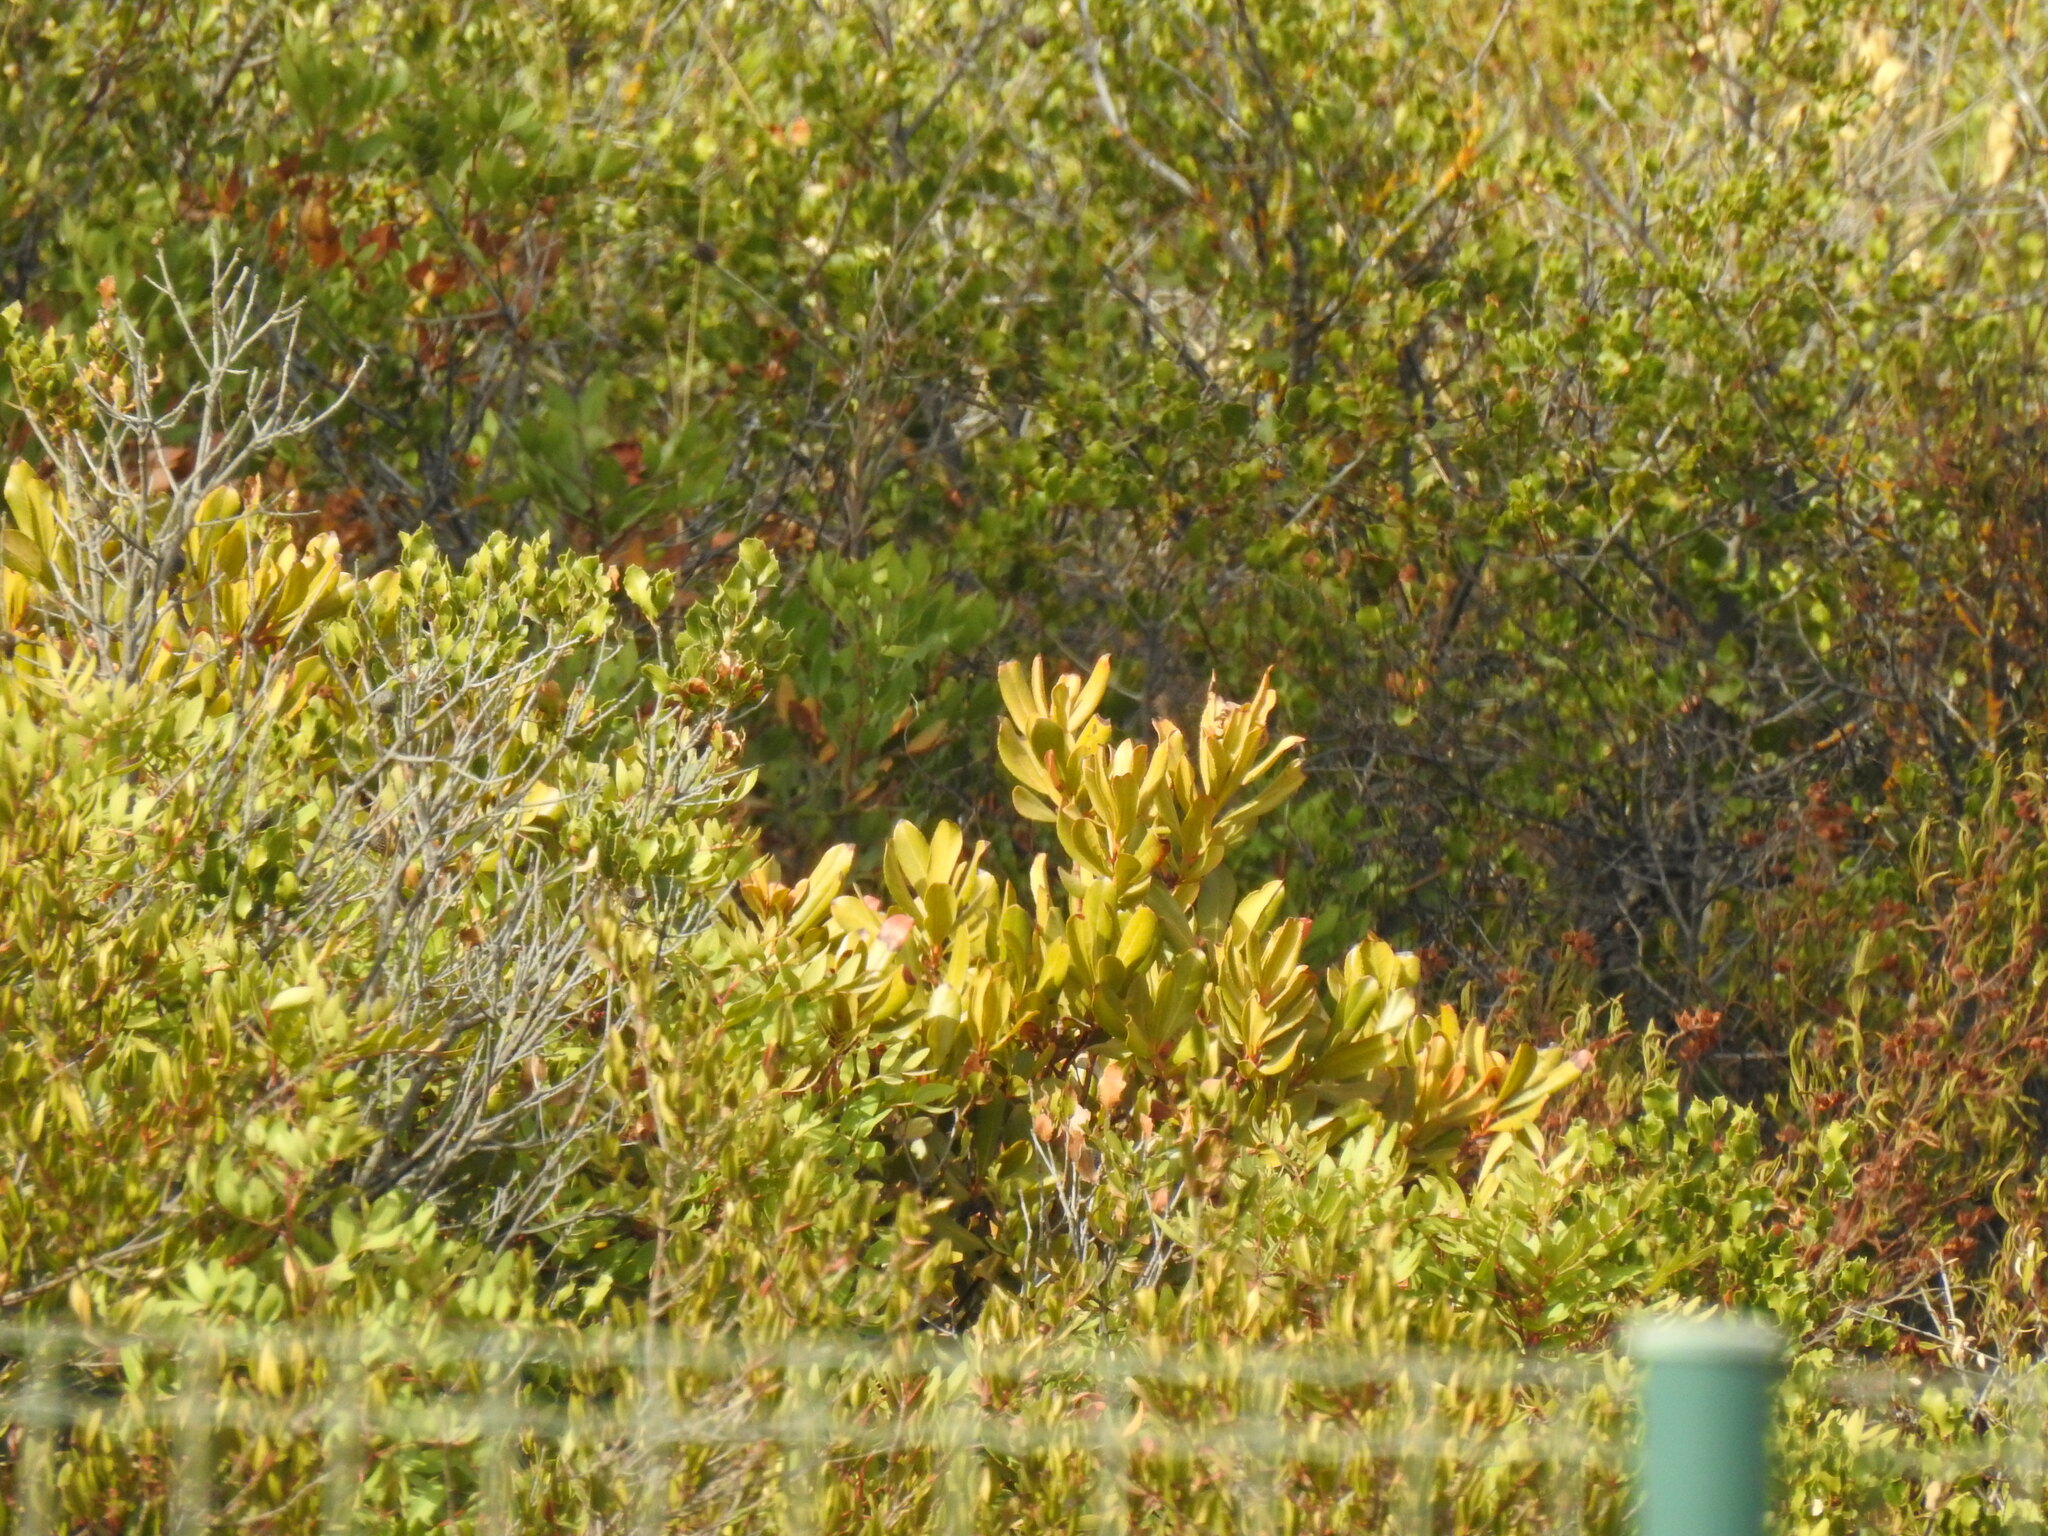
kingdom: Plantae
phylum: Tracheophyta
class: Magnoliopsida
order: Ericales
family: Ericaceae
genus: Arbutus
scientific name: Arbutus unedo
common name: Strawberry-tree
